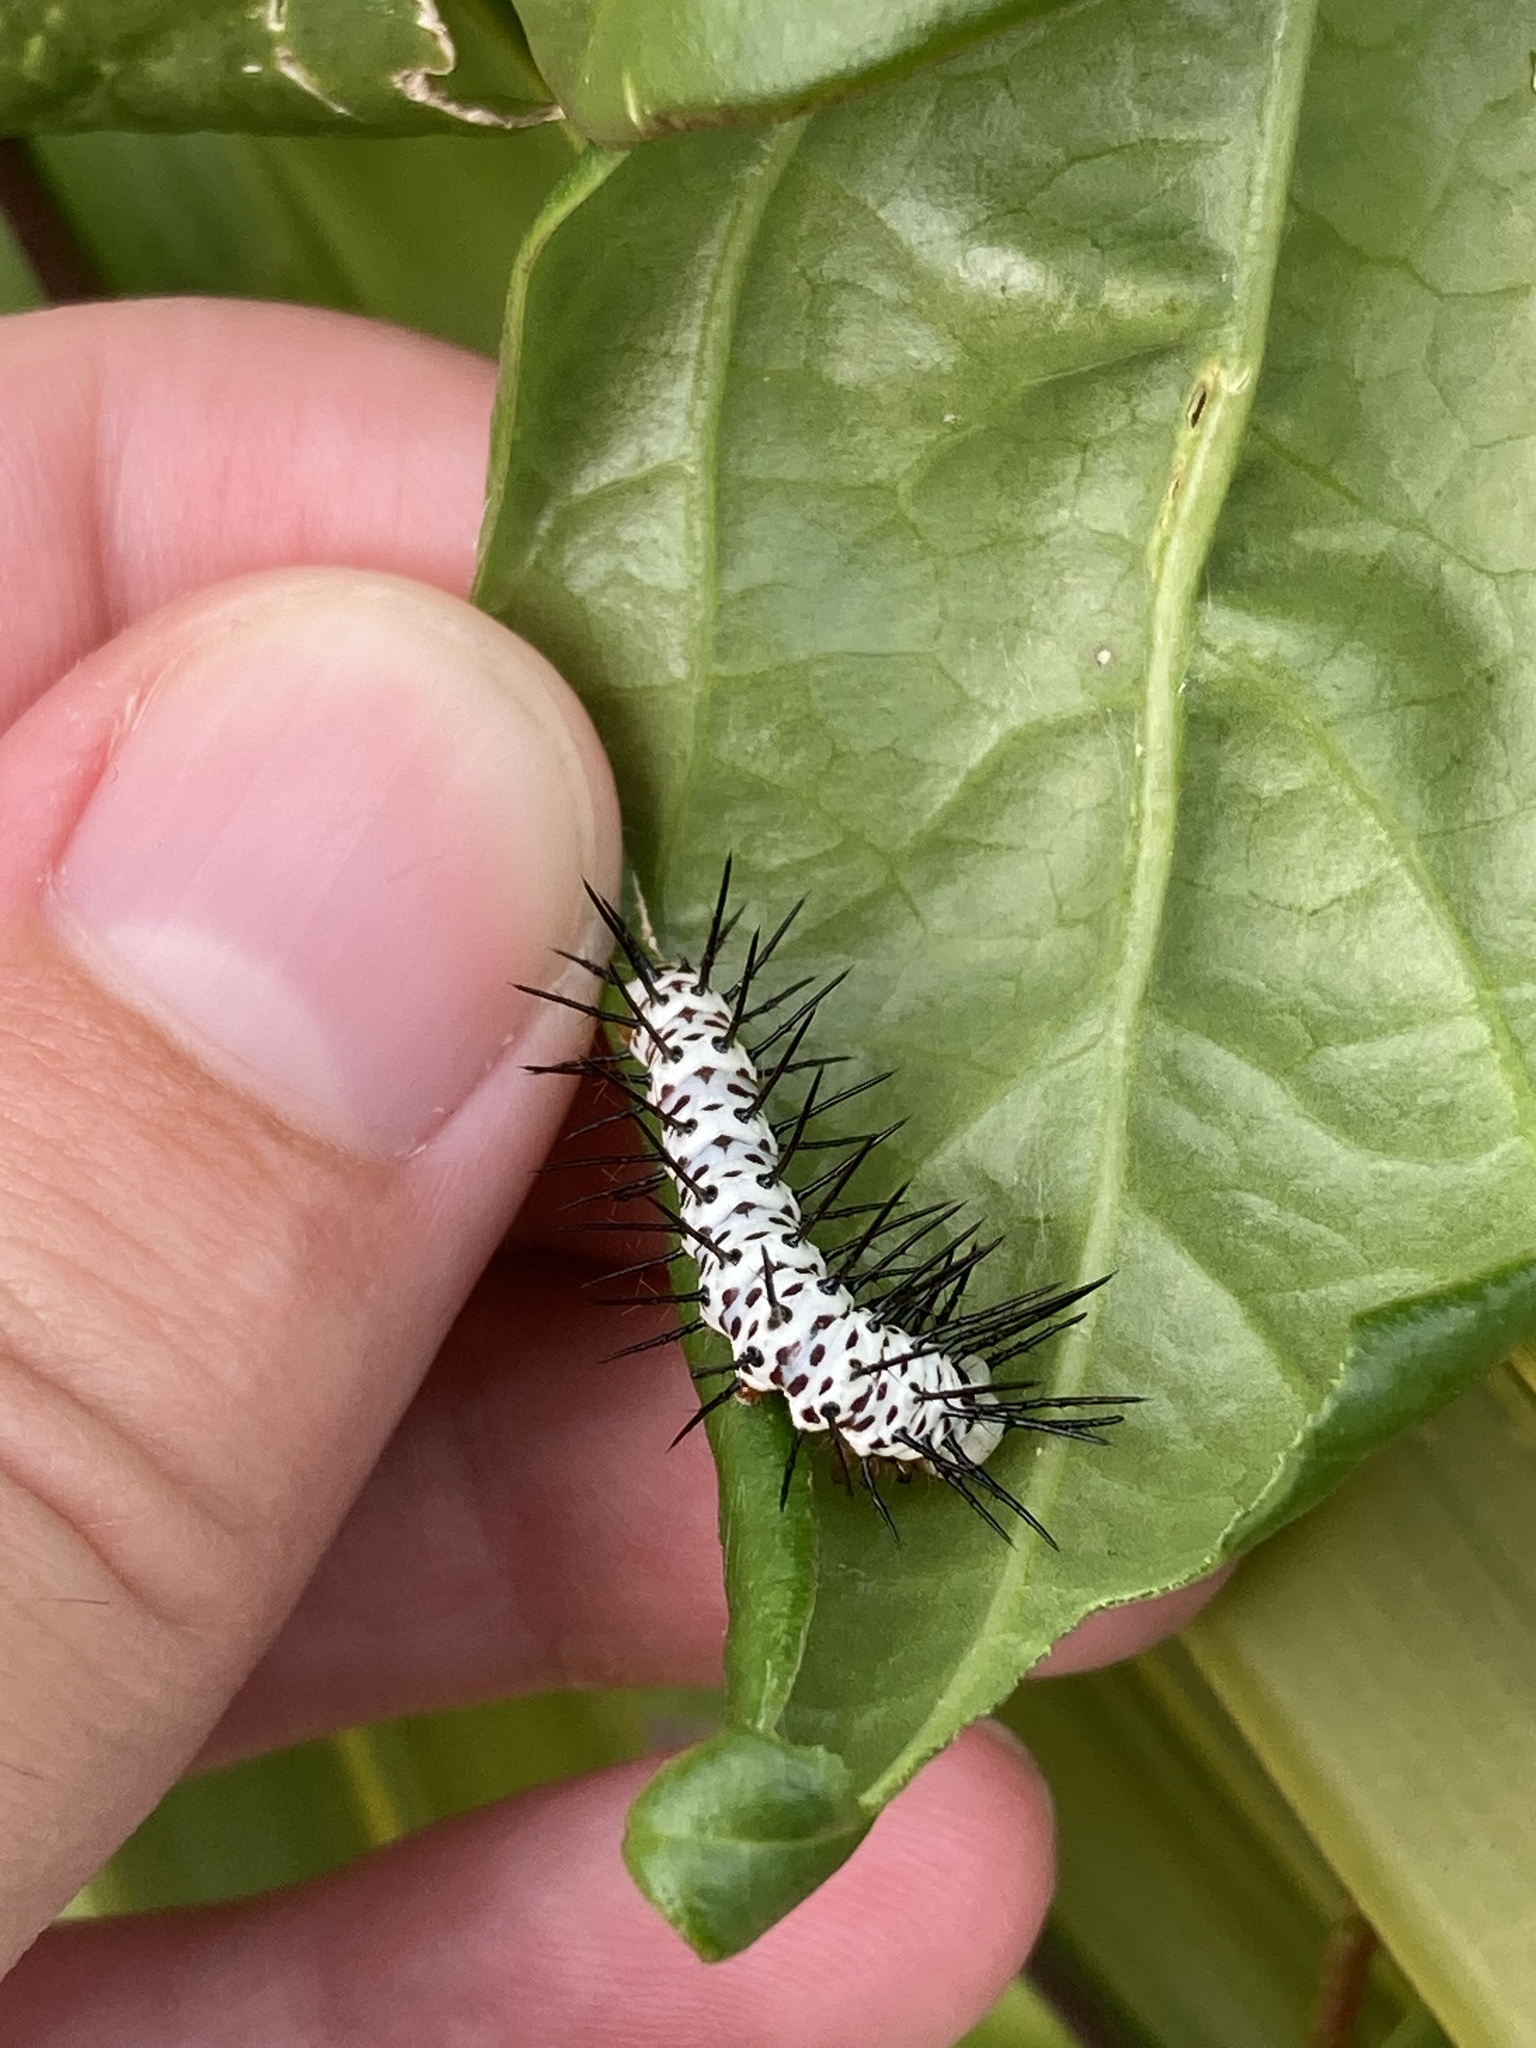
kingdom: Animalia
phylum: Arthropoda
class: Insecta
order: Lepidoptera
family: Nymphalidae
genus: Heliconius
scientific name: Heliconius charithonia
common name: Zebra long wing
